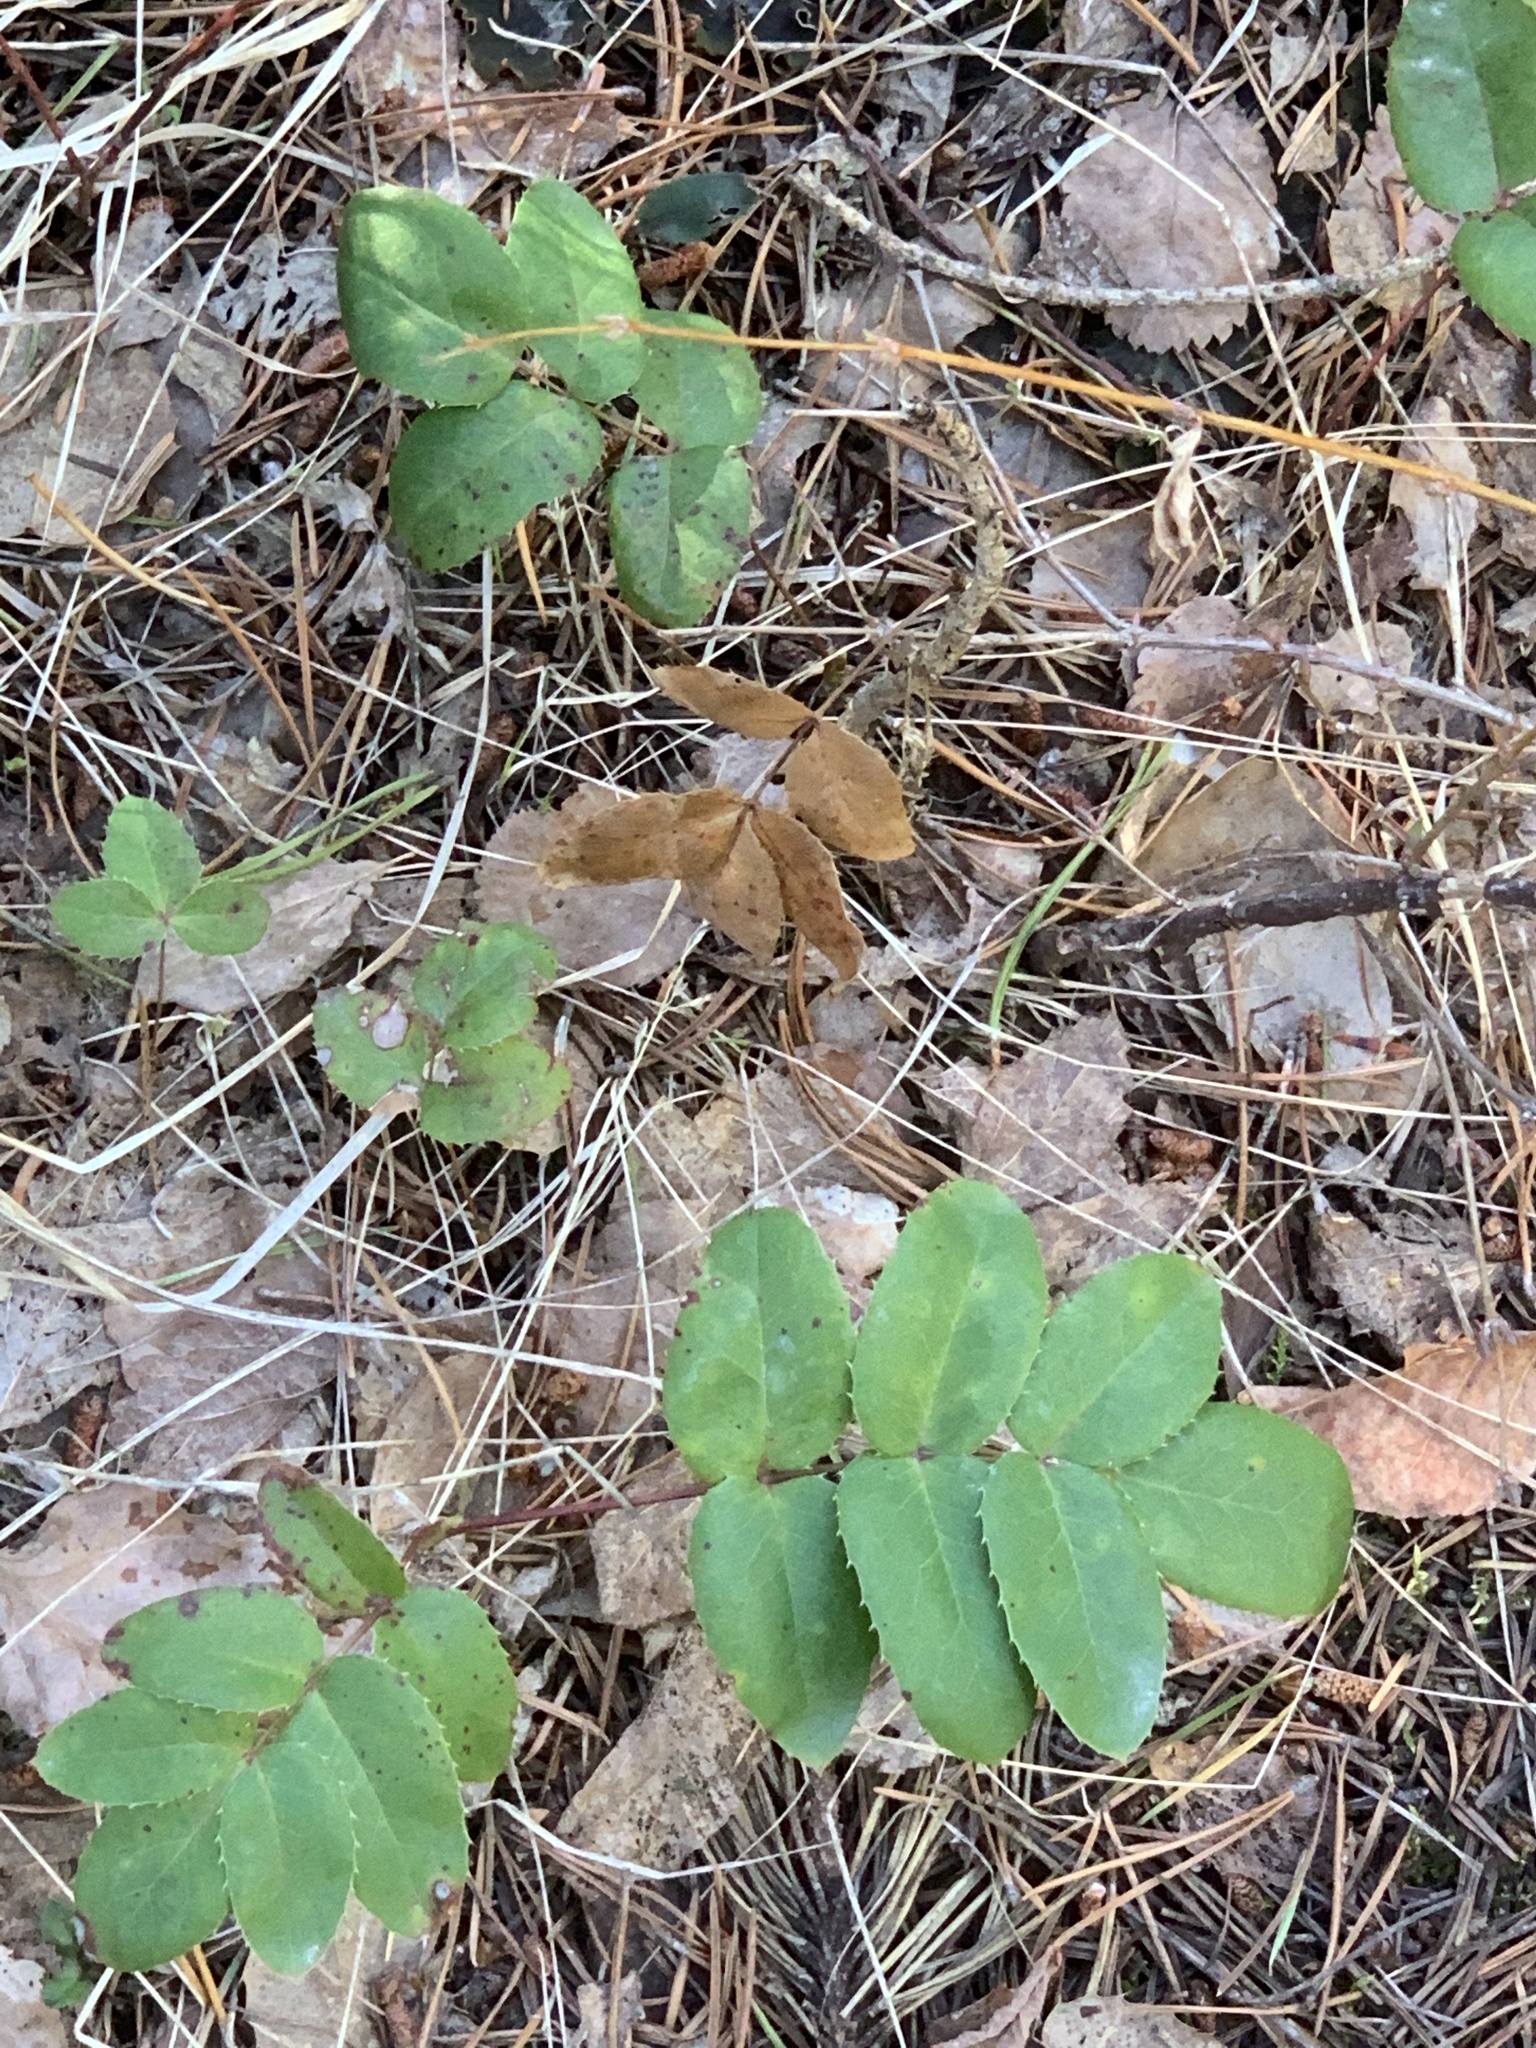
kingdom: Plantae
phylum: Tracheophyta
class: Magnoliopsida
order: Ranunculales
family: Berberidaceae
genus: Mahonia
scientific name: Mahonia repens
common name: Creeping oregon-grape
